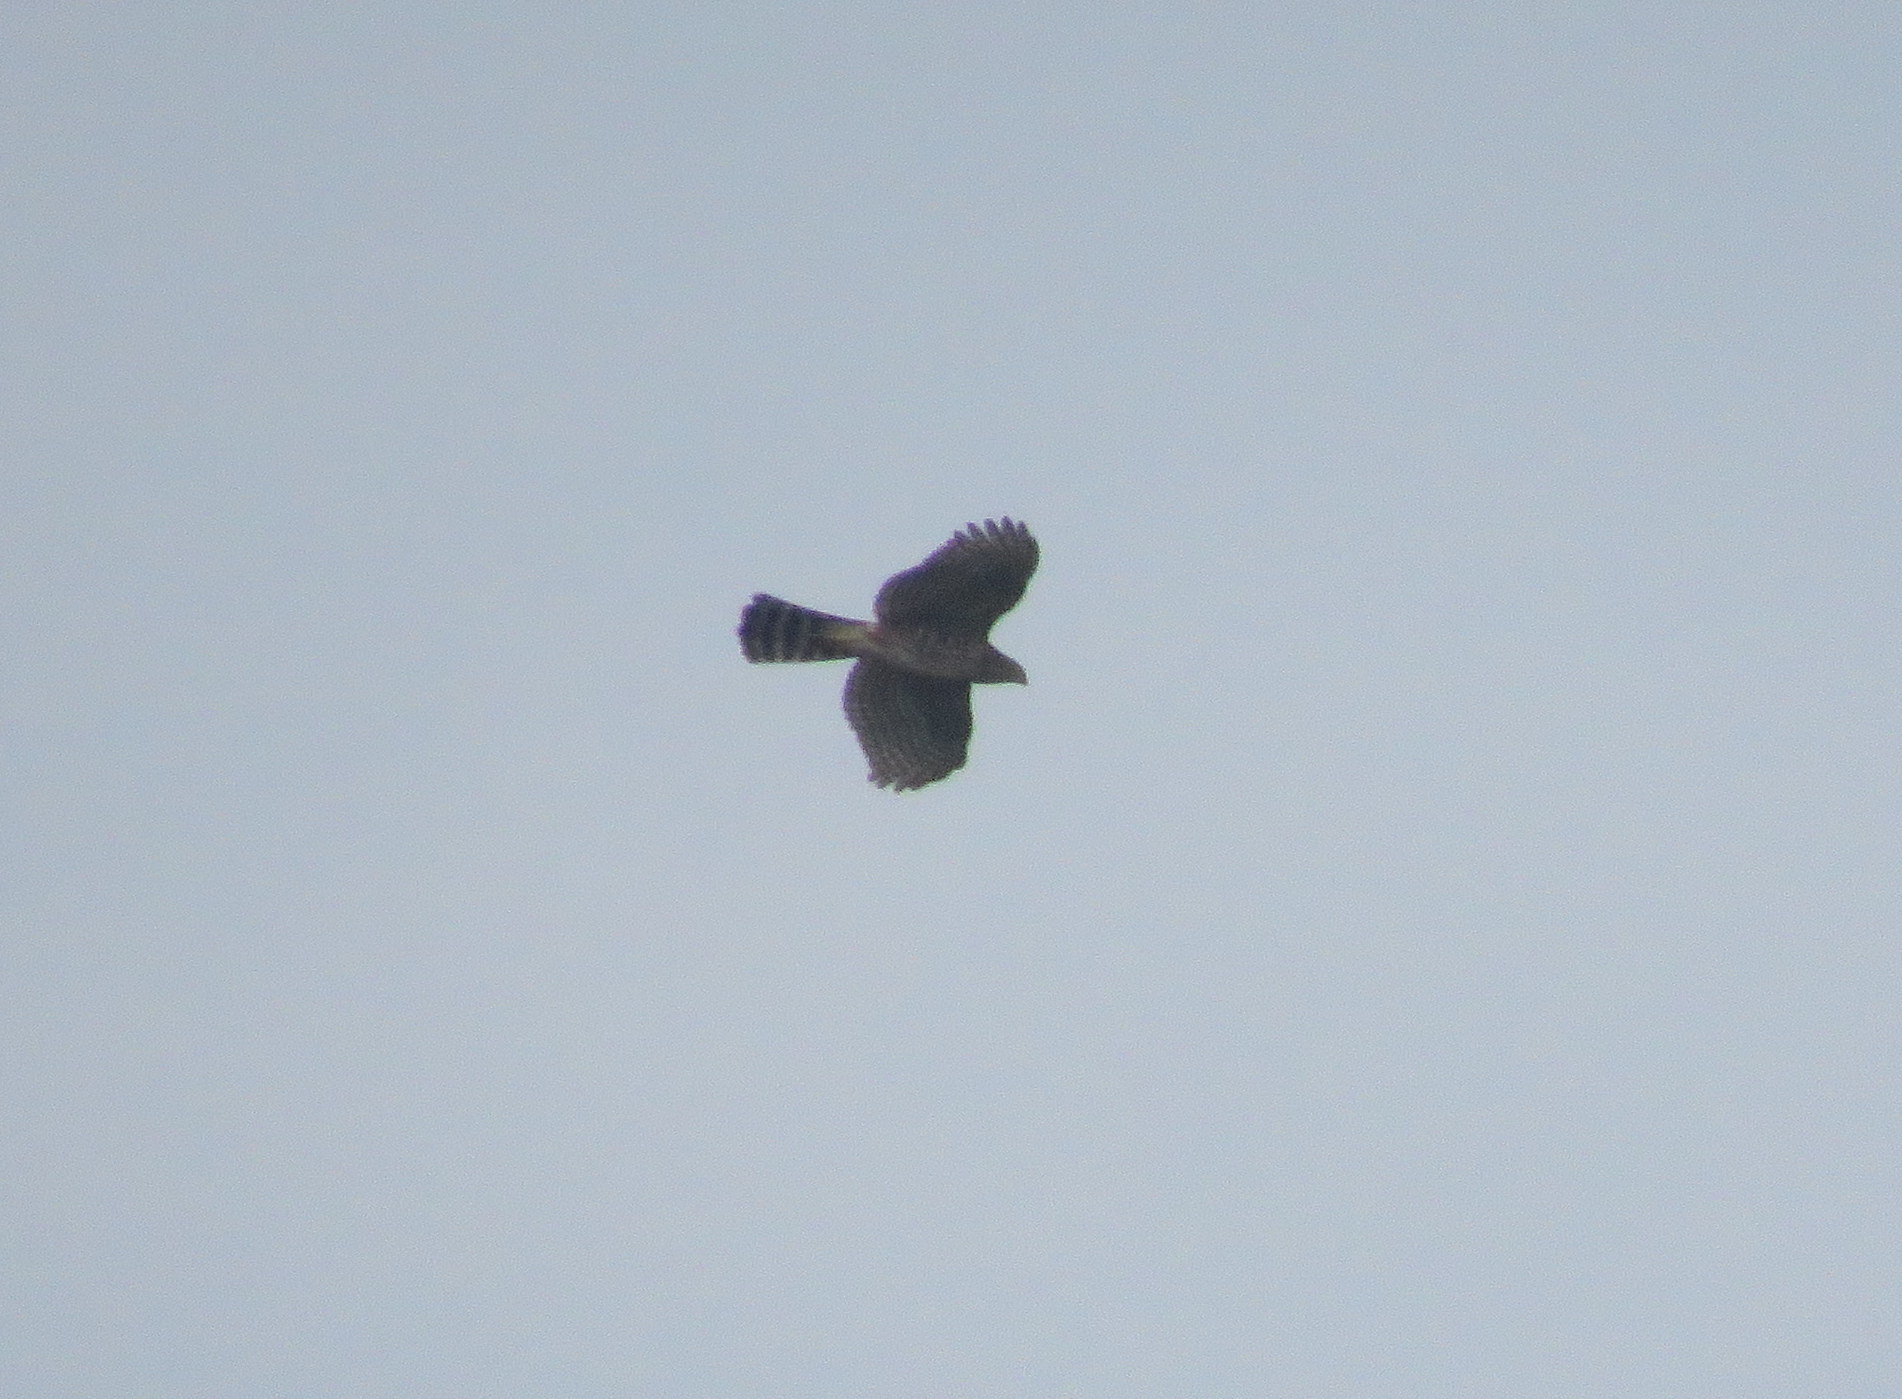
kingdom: Animalia
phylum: Chordata
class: Aves
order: Accipitriformes
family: Accipitridae
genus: Accipiter
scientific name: Accipiter bicolor
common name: Bicolored hawk
